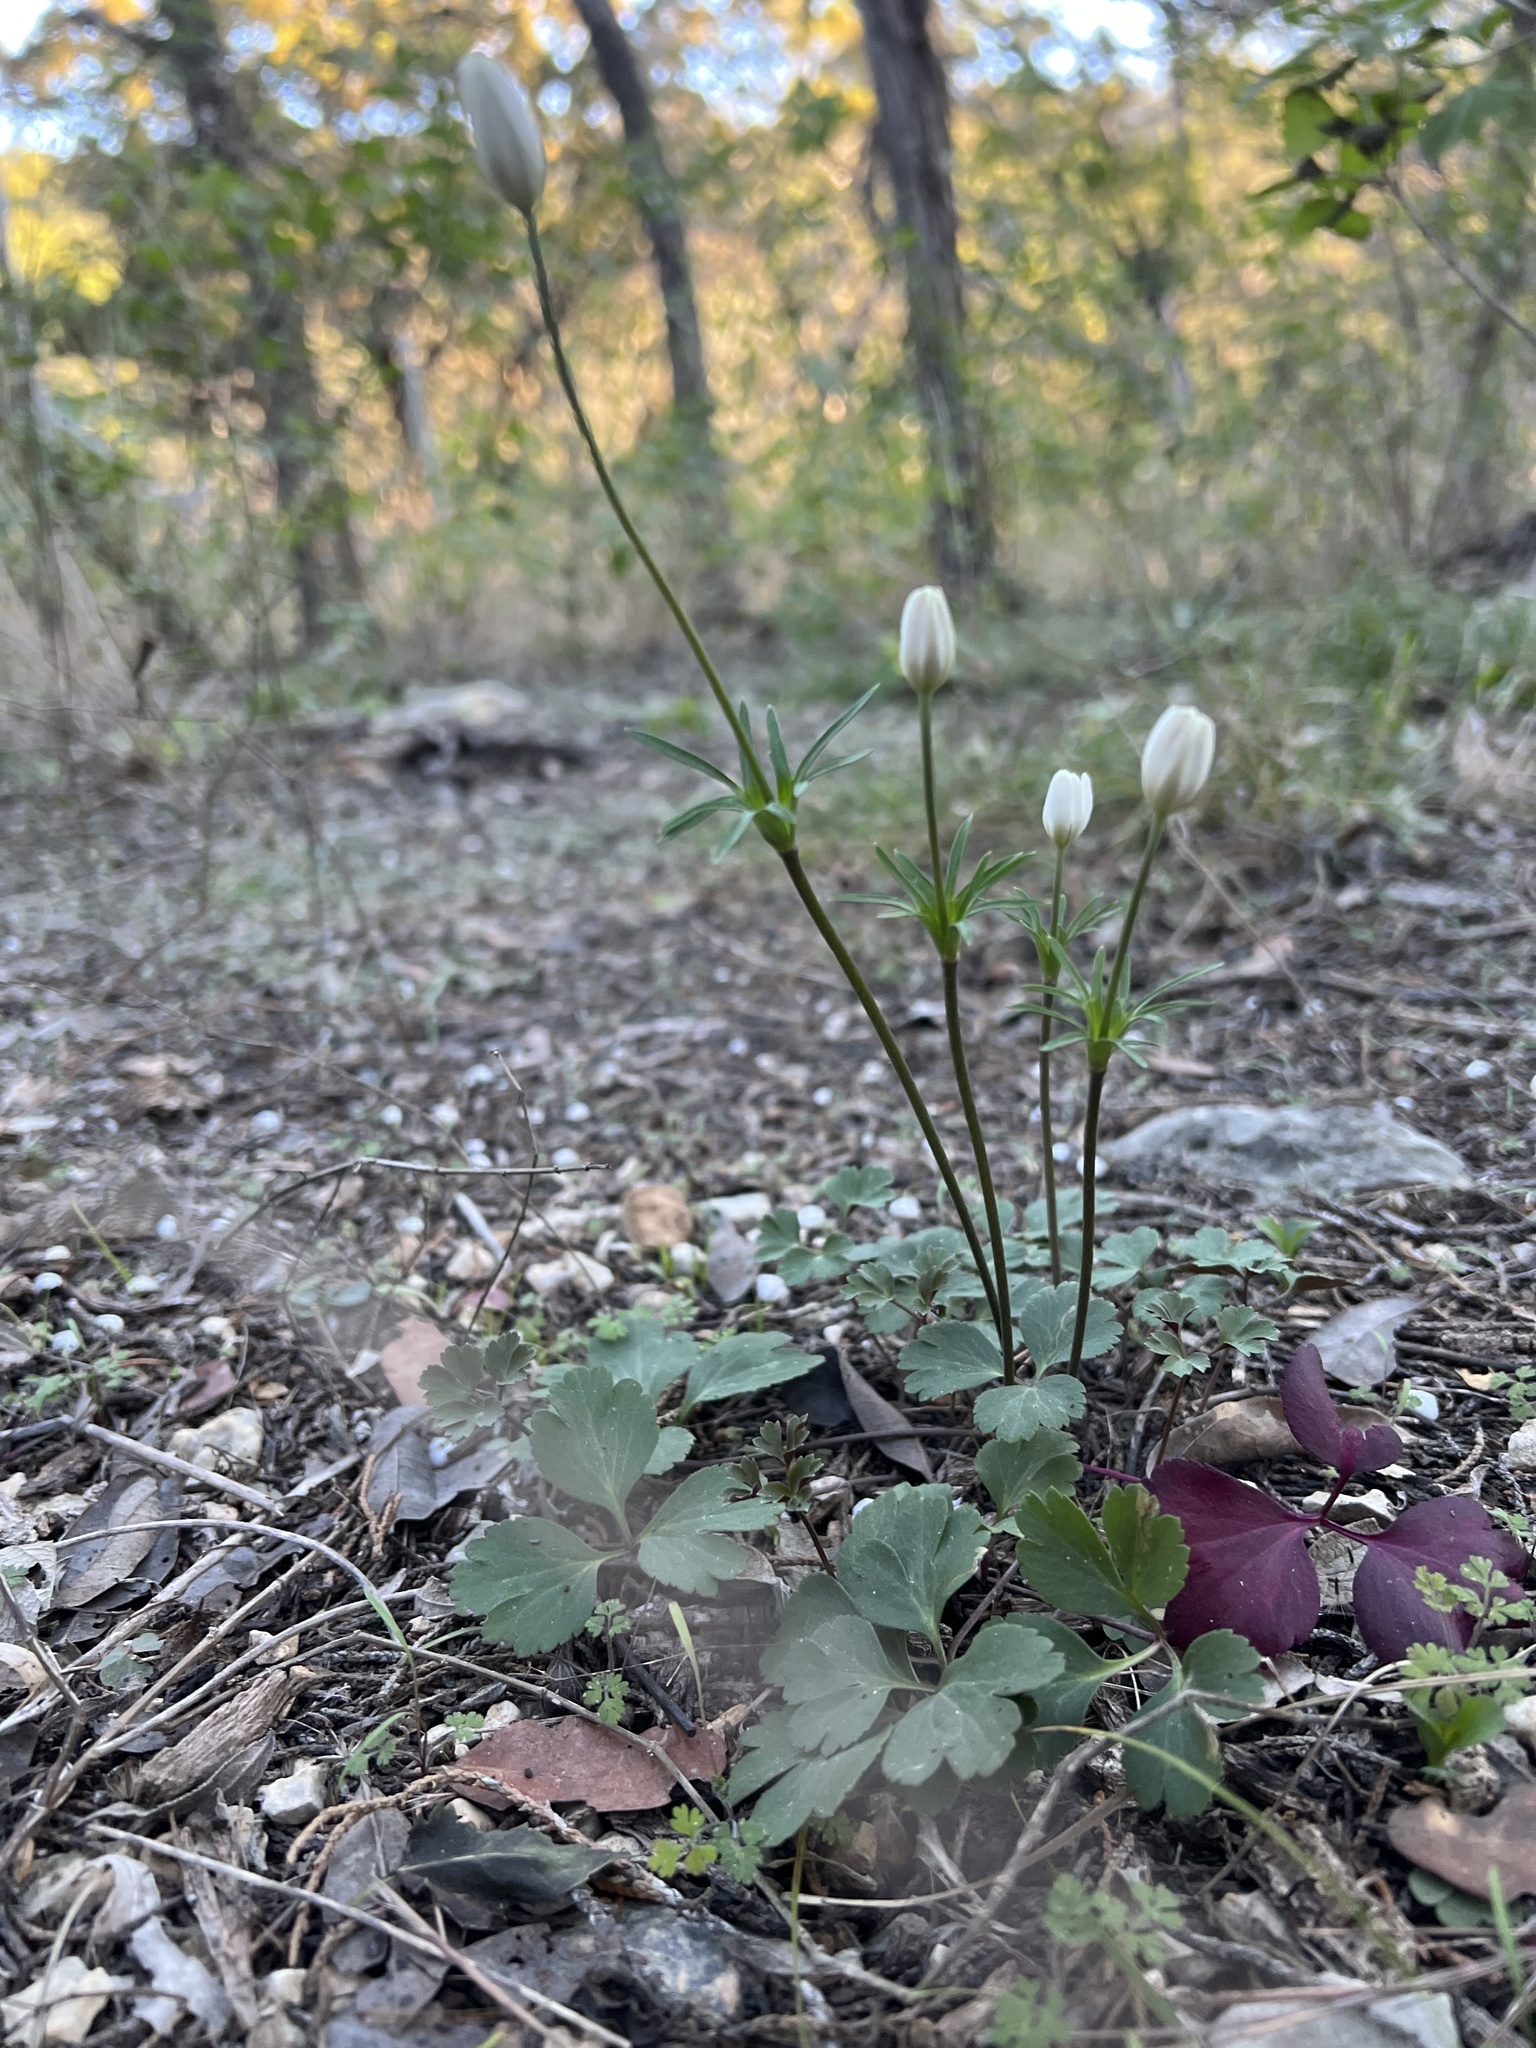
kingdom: Plantae
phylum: Tracheophyta
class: Magnoliopsida
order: Ranunculales
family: Ranunculaceae
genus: Anemone
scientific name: Anemone berlandieri
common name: Ten-petal anemone
